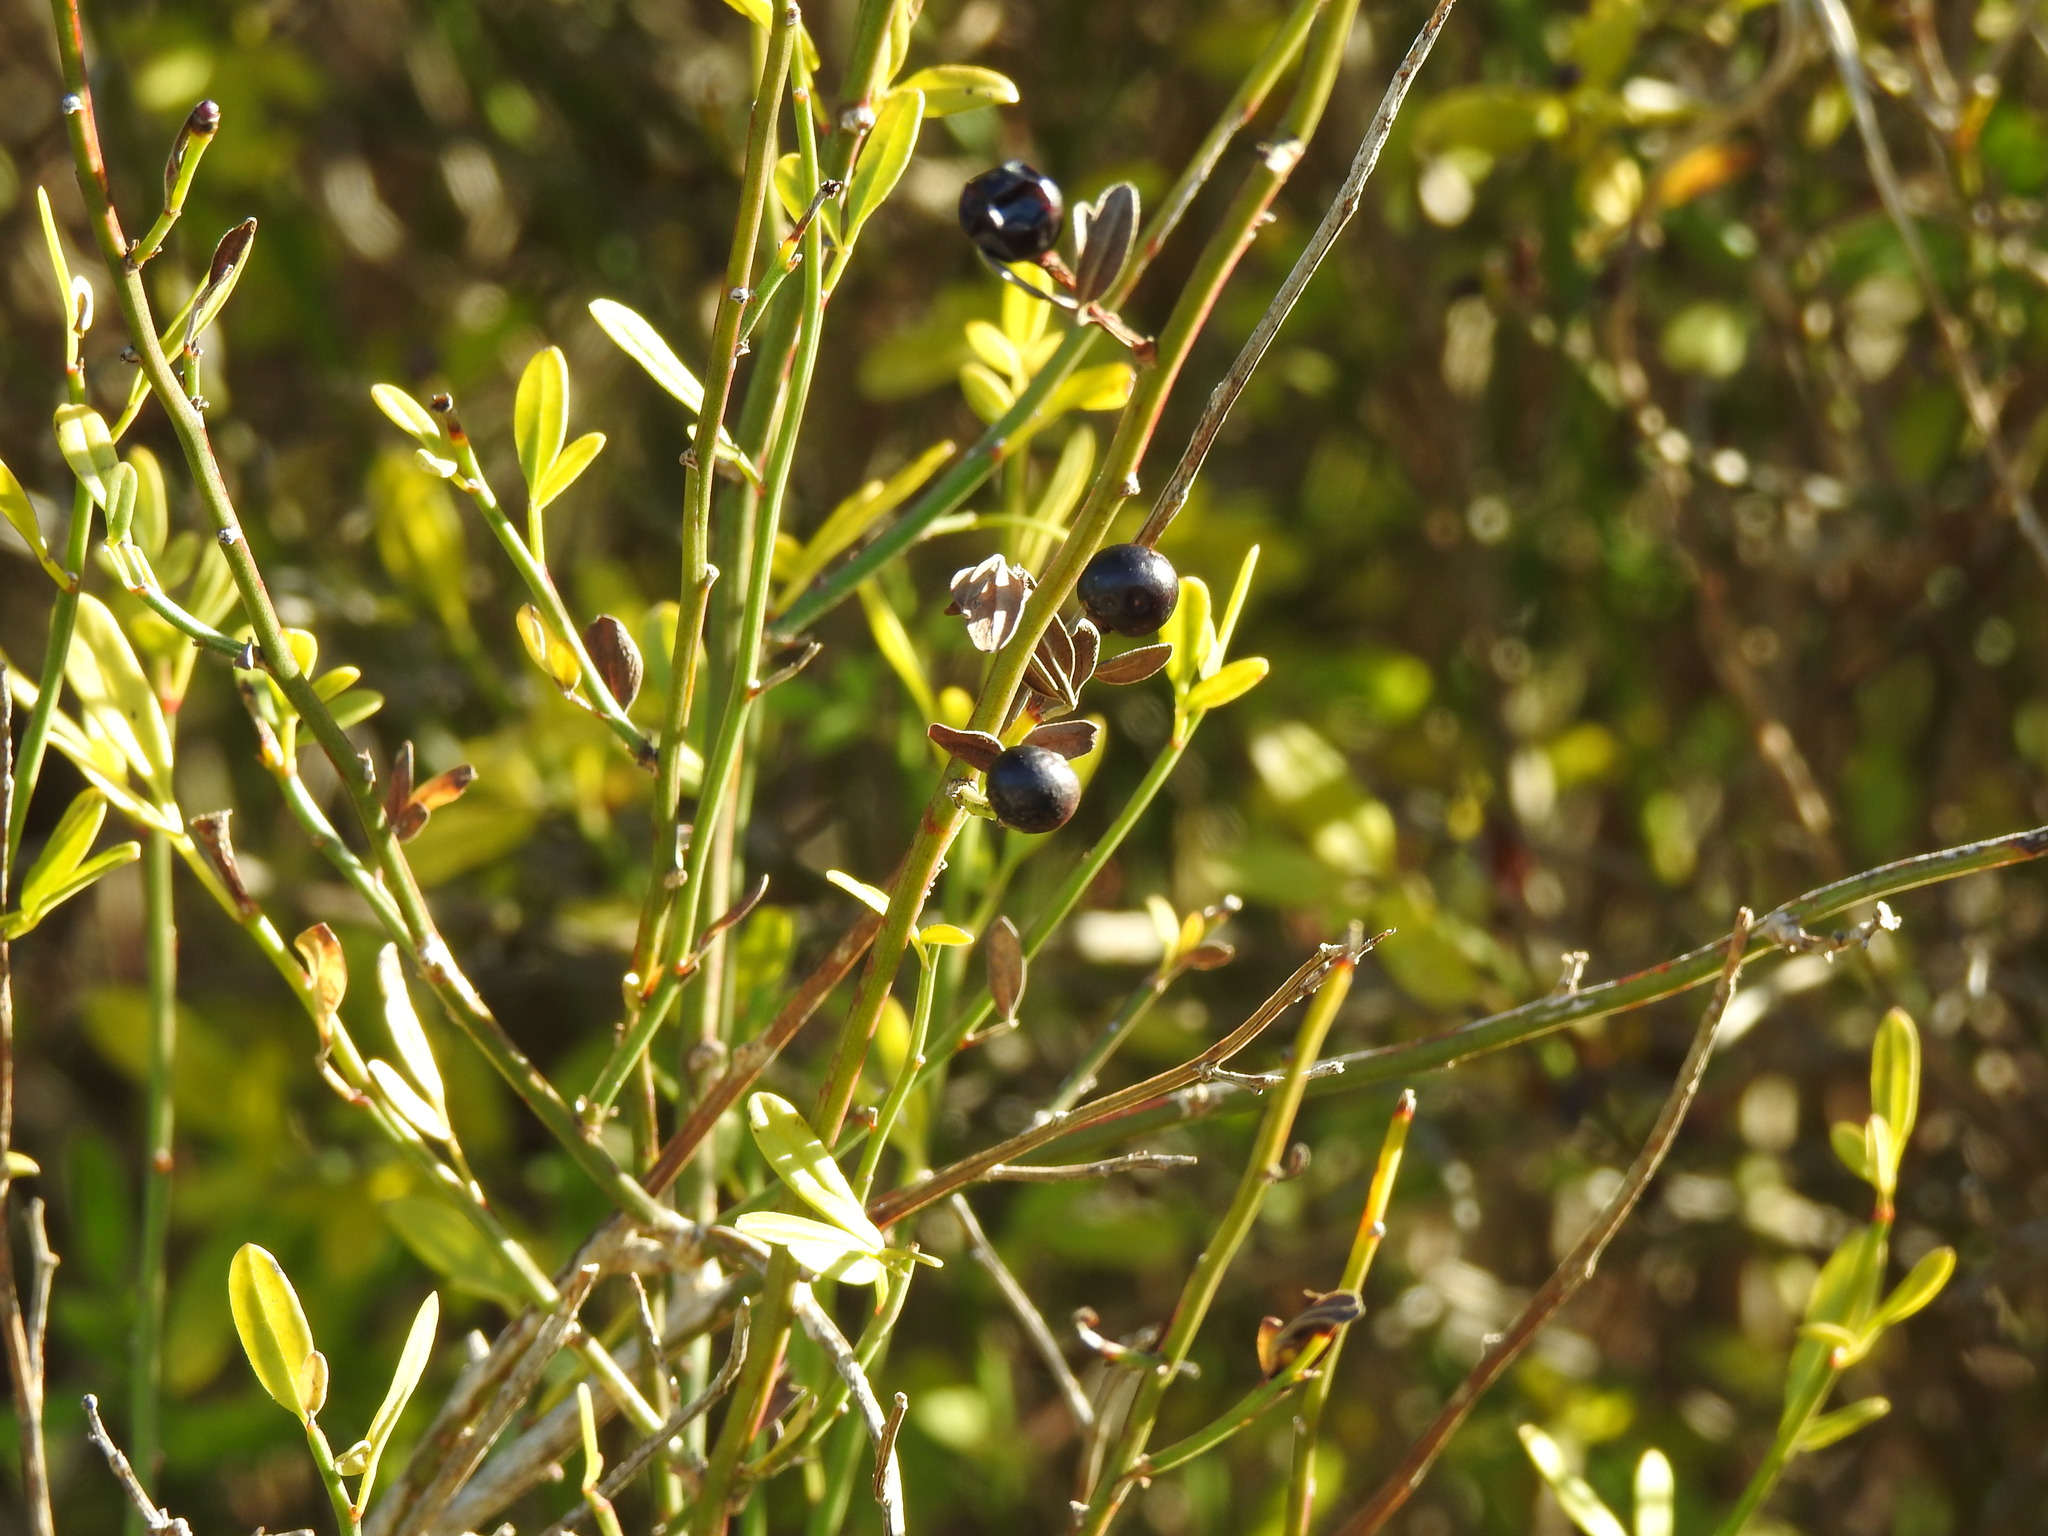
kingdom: Plantae
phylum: Tracheophyta
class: Magnoliopsida
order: Lamiales
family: Oleaceae
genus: Chrysojasminum
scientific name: Chrysojasminum fruticans
